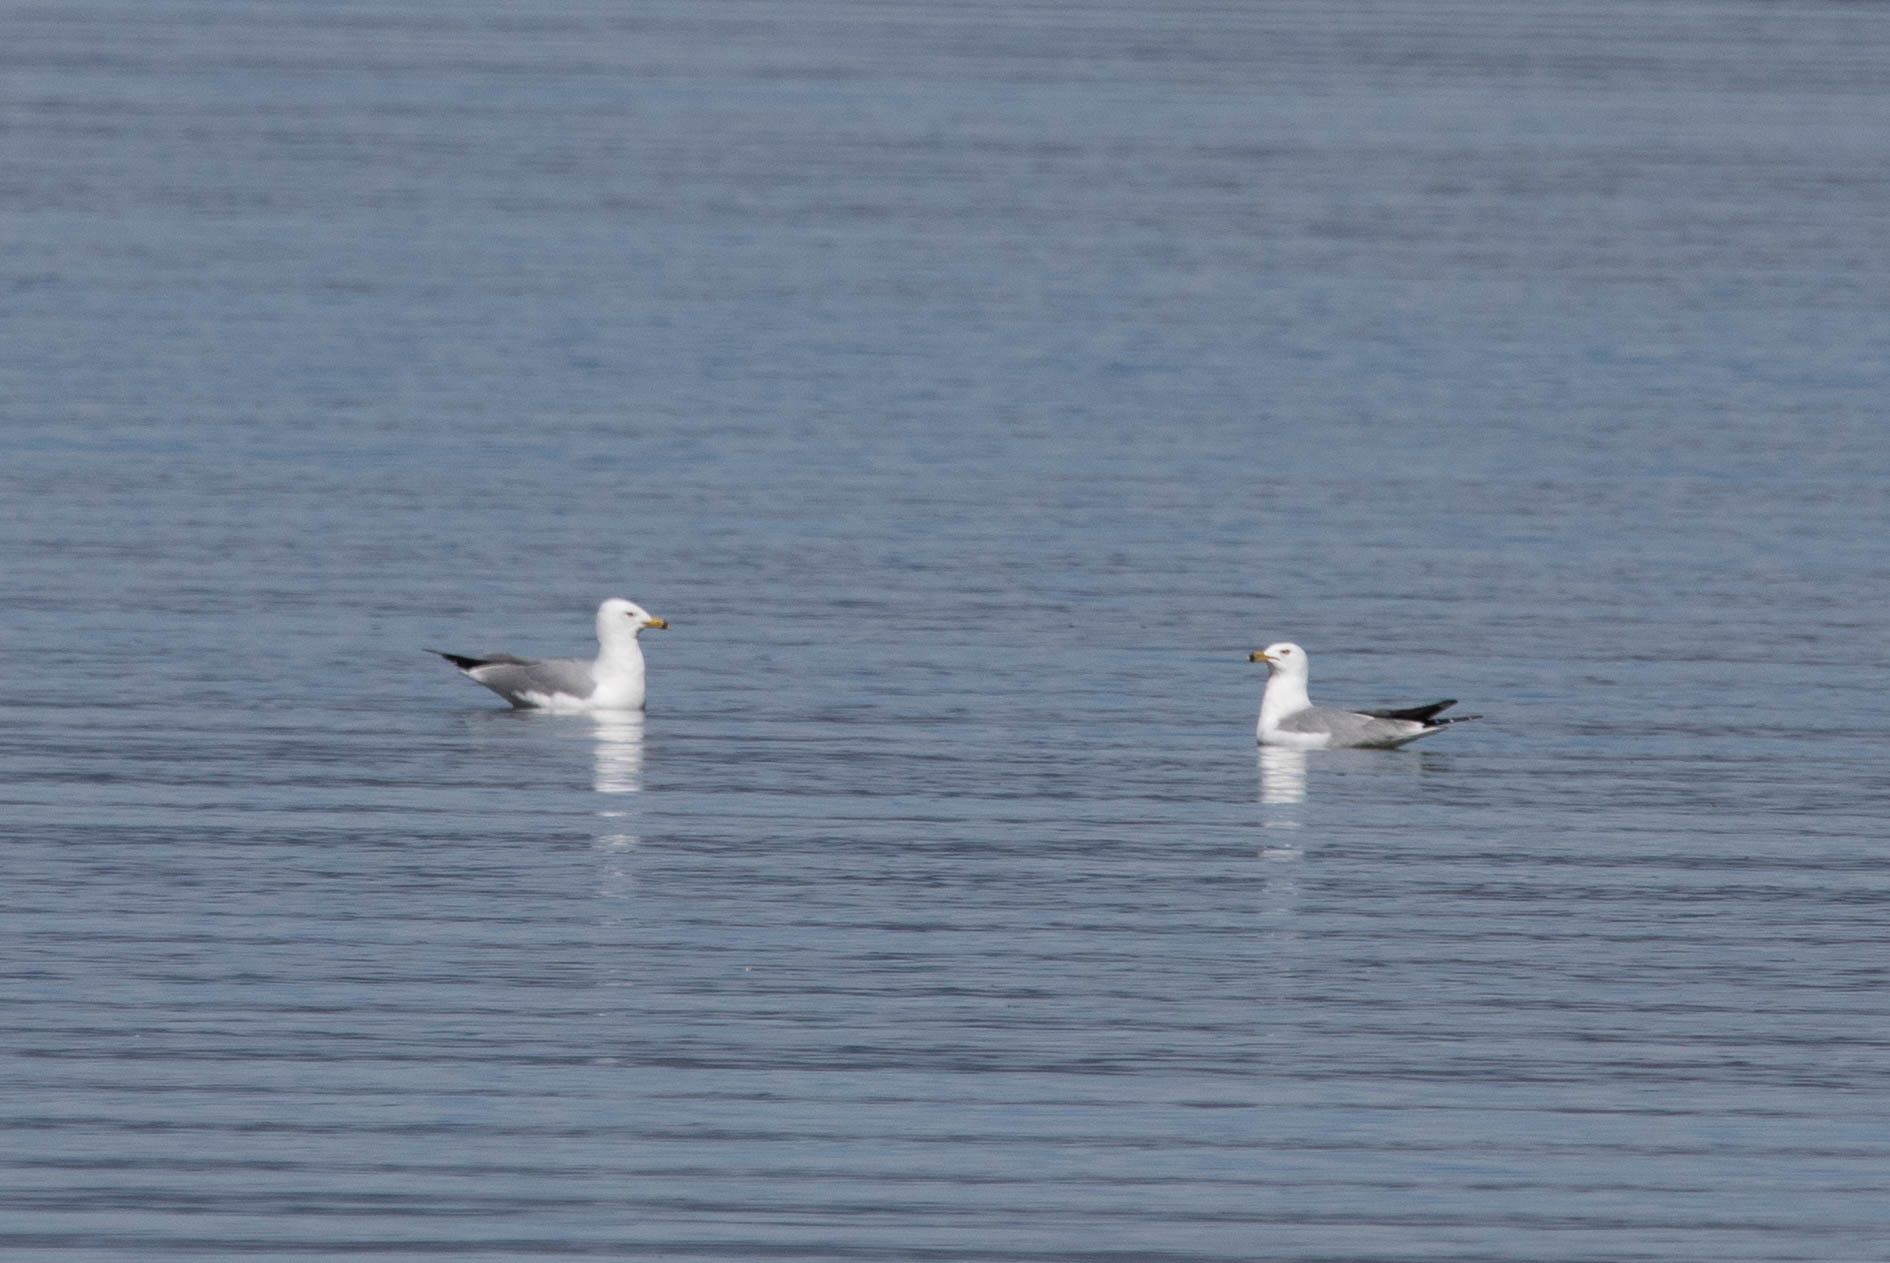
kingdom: Animalia
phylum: Chordata
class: Aves
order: Charadriiformes
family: Laridae
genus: Larus
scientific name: Larus delawarensis
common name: Ring-billed gull
